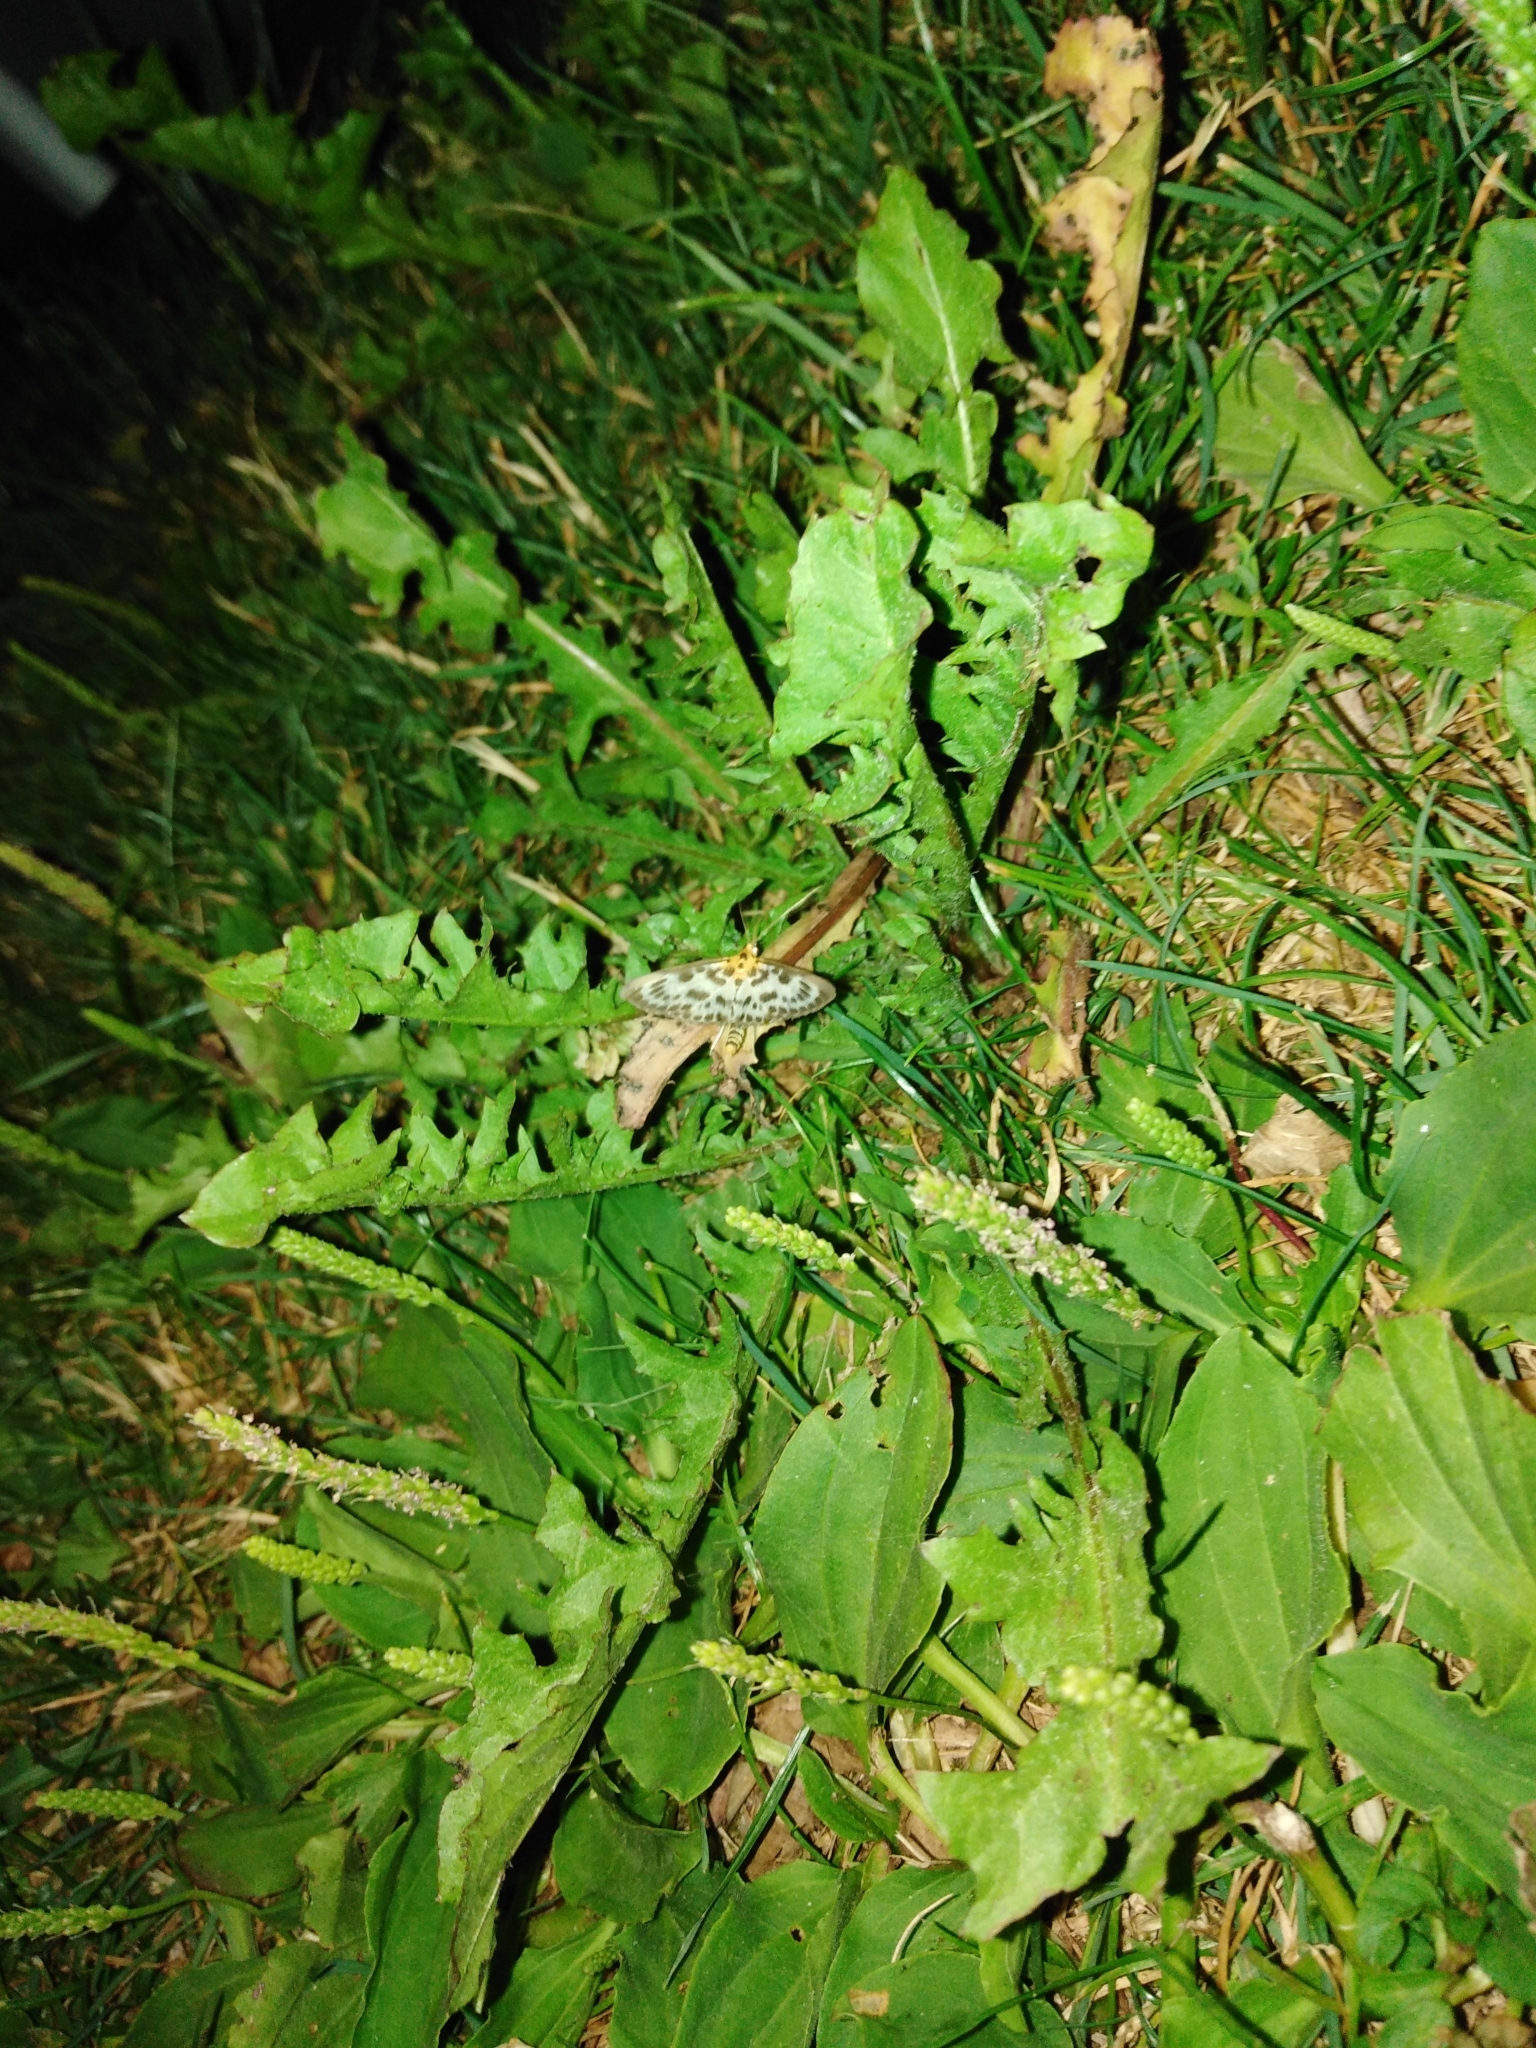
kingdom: Animalia
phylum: Arthropoda
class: Insecta
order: Lepidoptera
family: Crambidae
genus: Anania
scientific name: Anania hortulata
